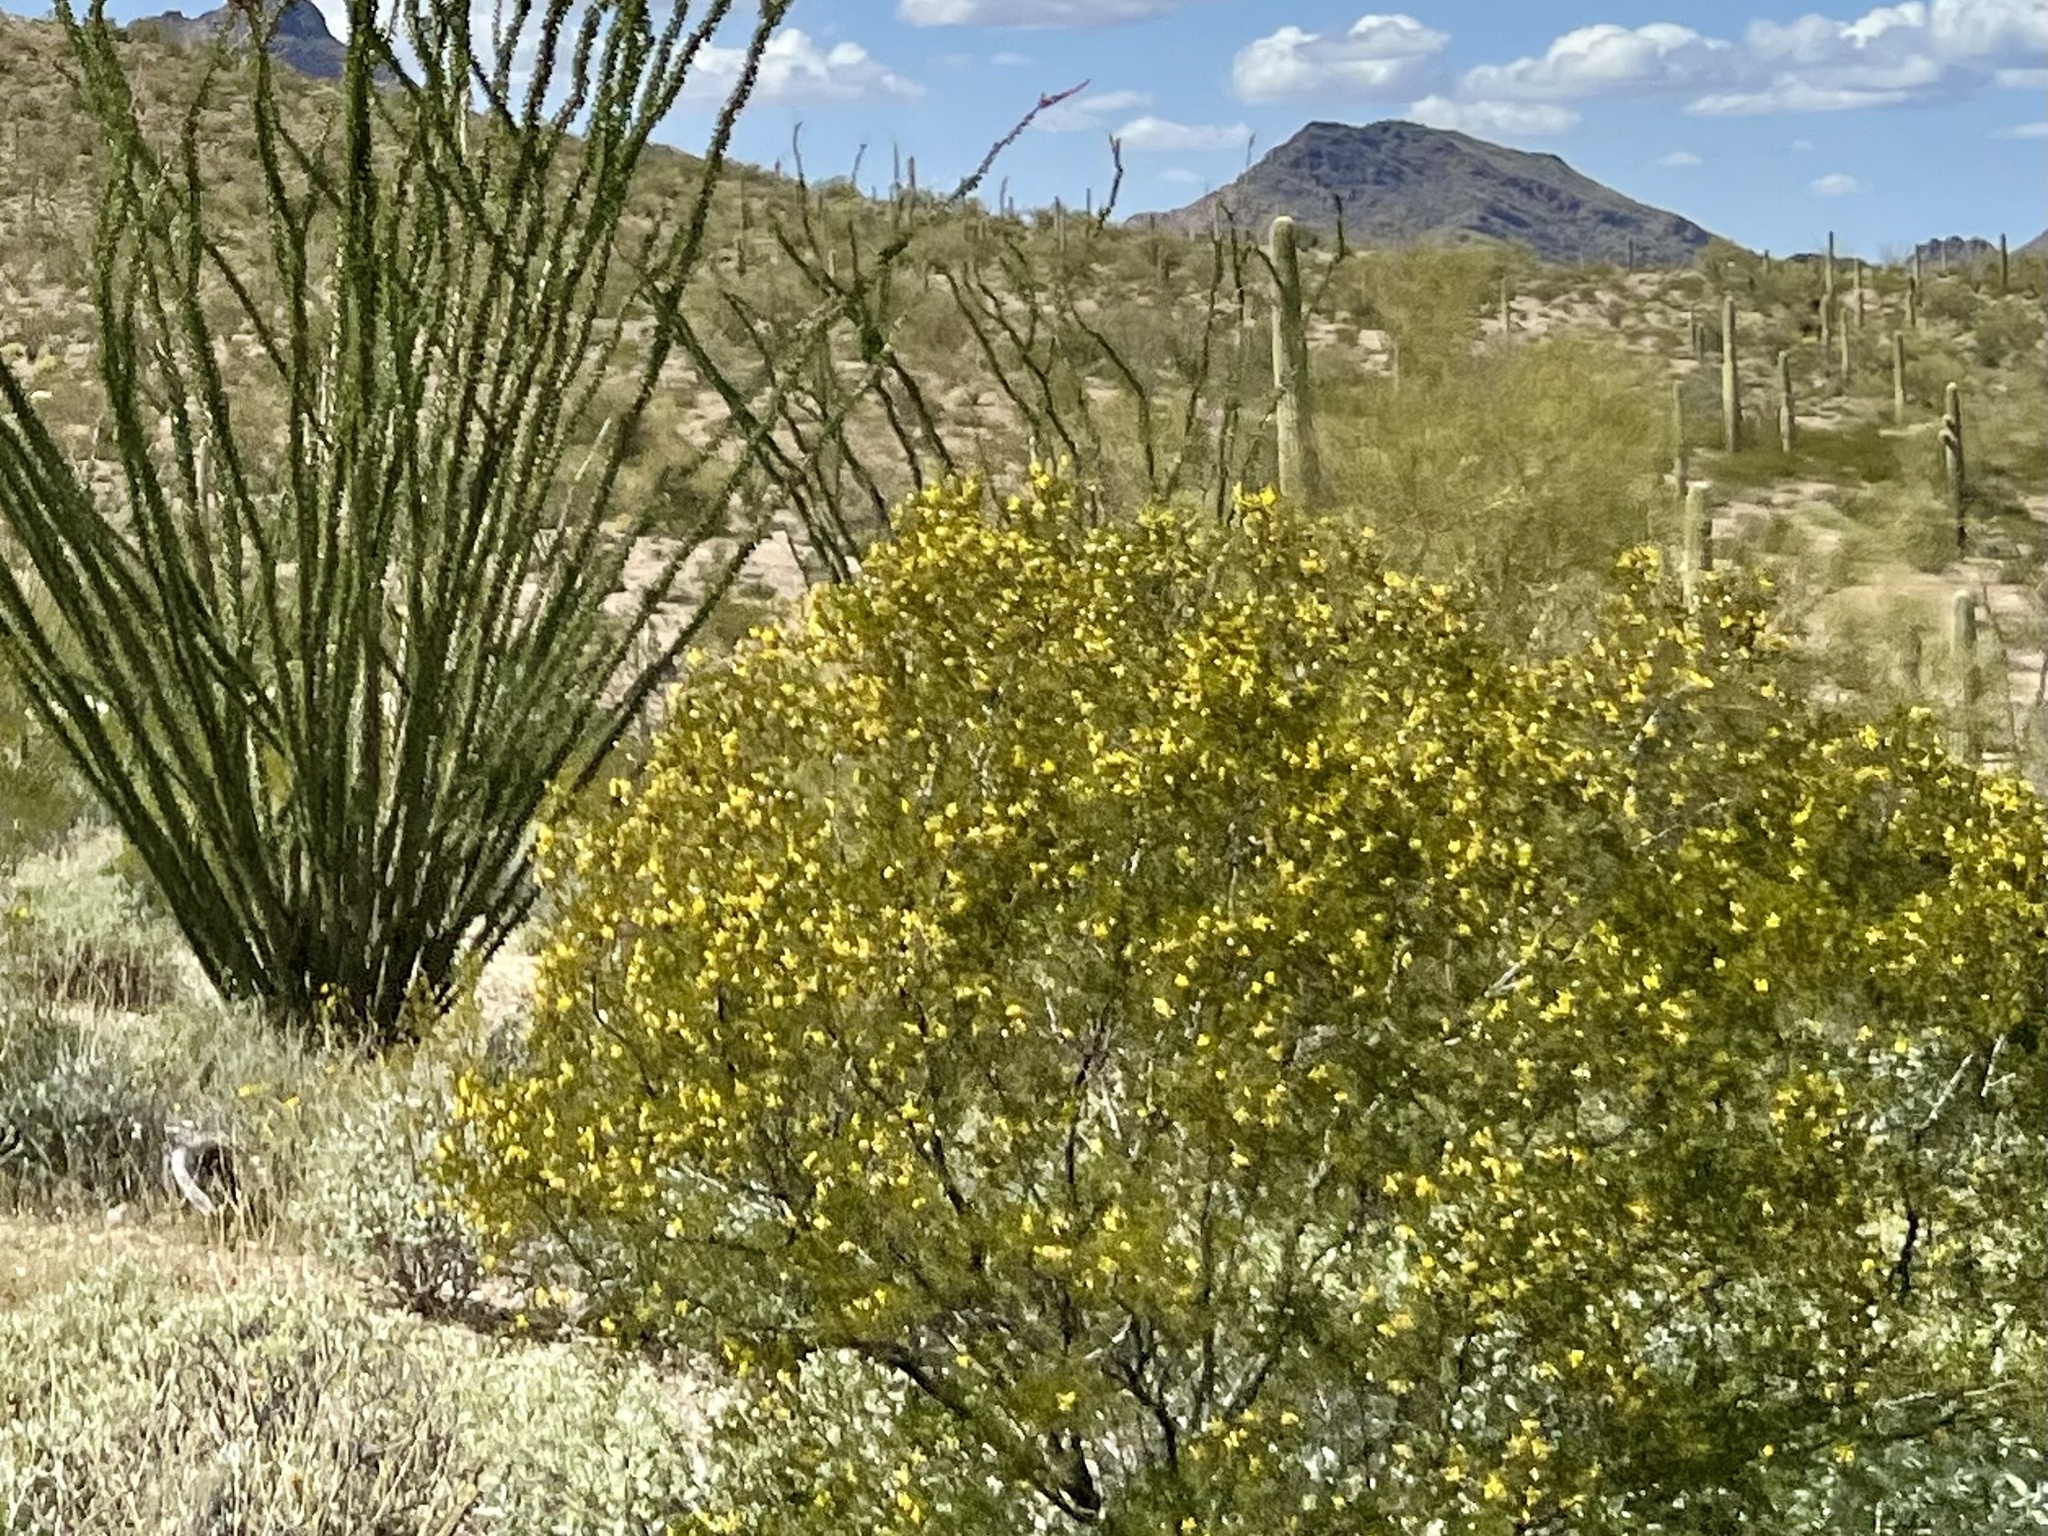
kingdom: Plantae
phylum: Tracheophyta
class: Magnoliopsida
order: Zygophyllales
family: Zygophyllaceae
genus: Larrea
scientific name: Larrea tridentata
